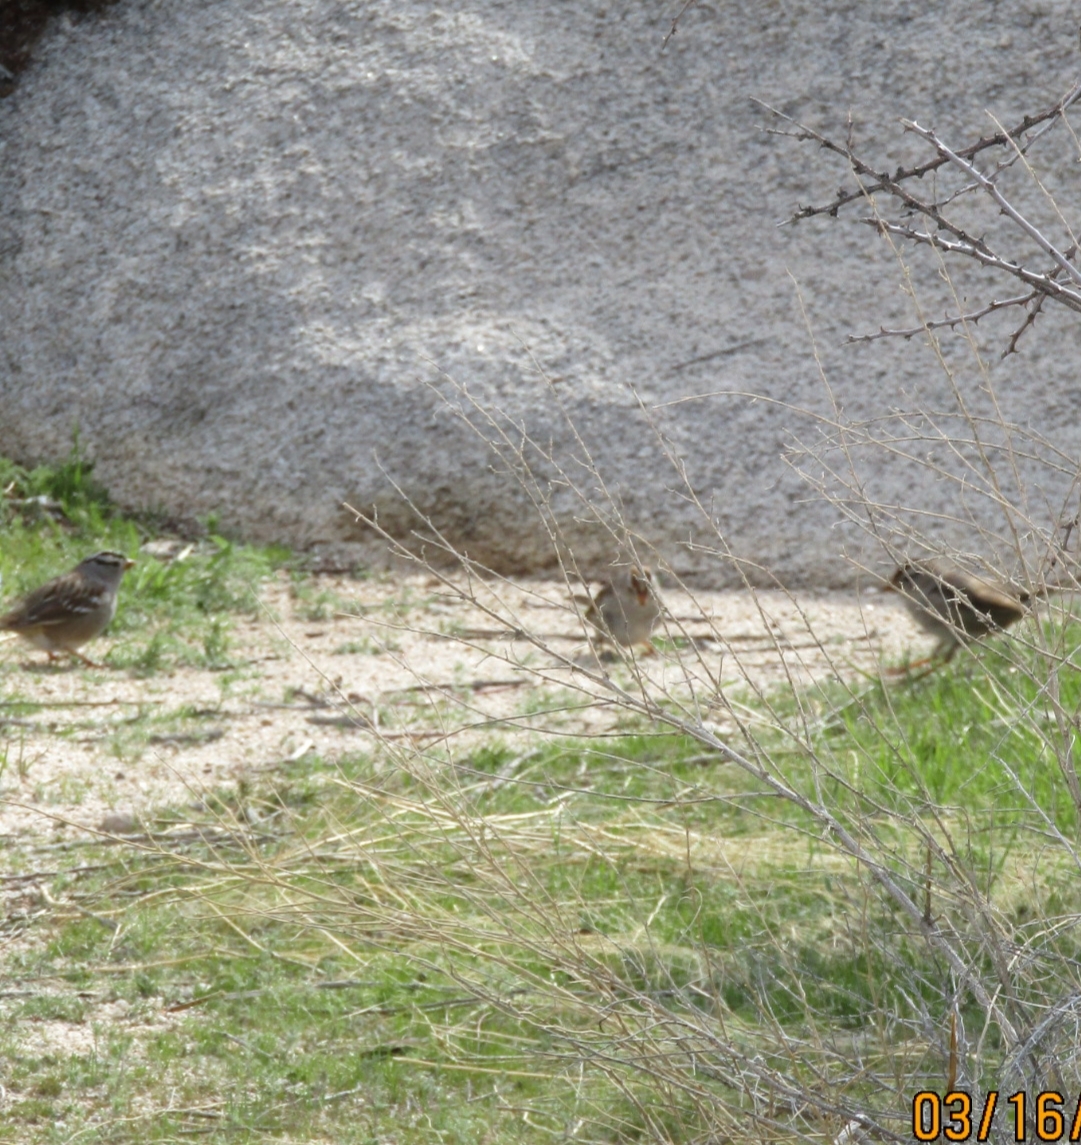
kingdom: Animalia
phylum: Chordata
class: Aves
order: Passeriformes
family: Passerellidae
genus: Zonotrichia
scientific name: Zonotrichia leucophrys
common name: White-crowned sparrow
